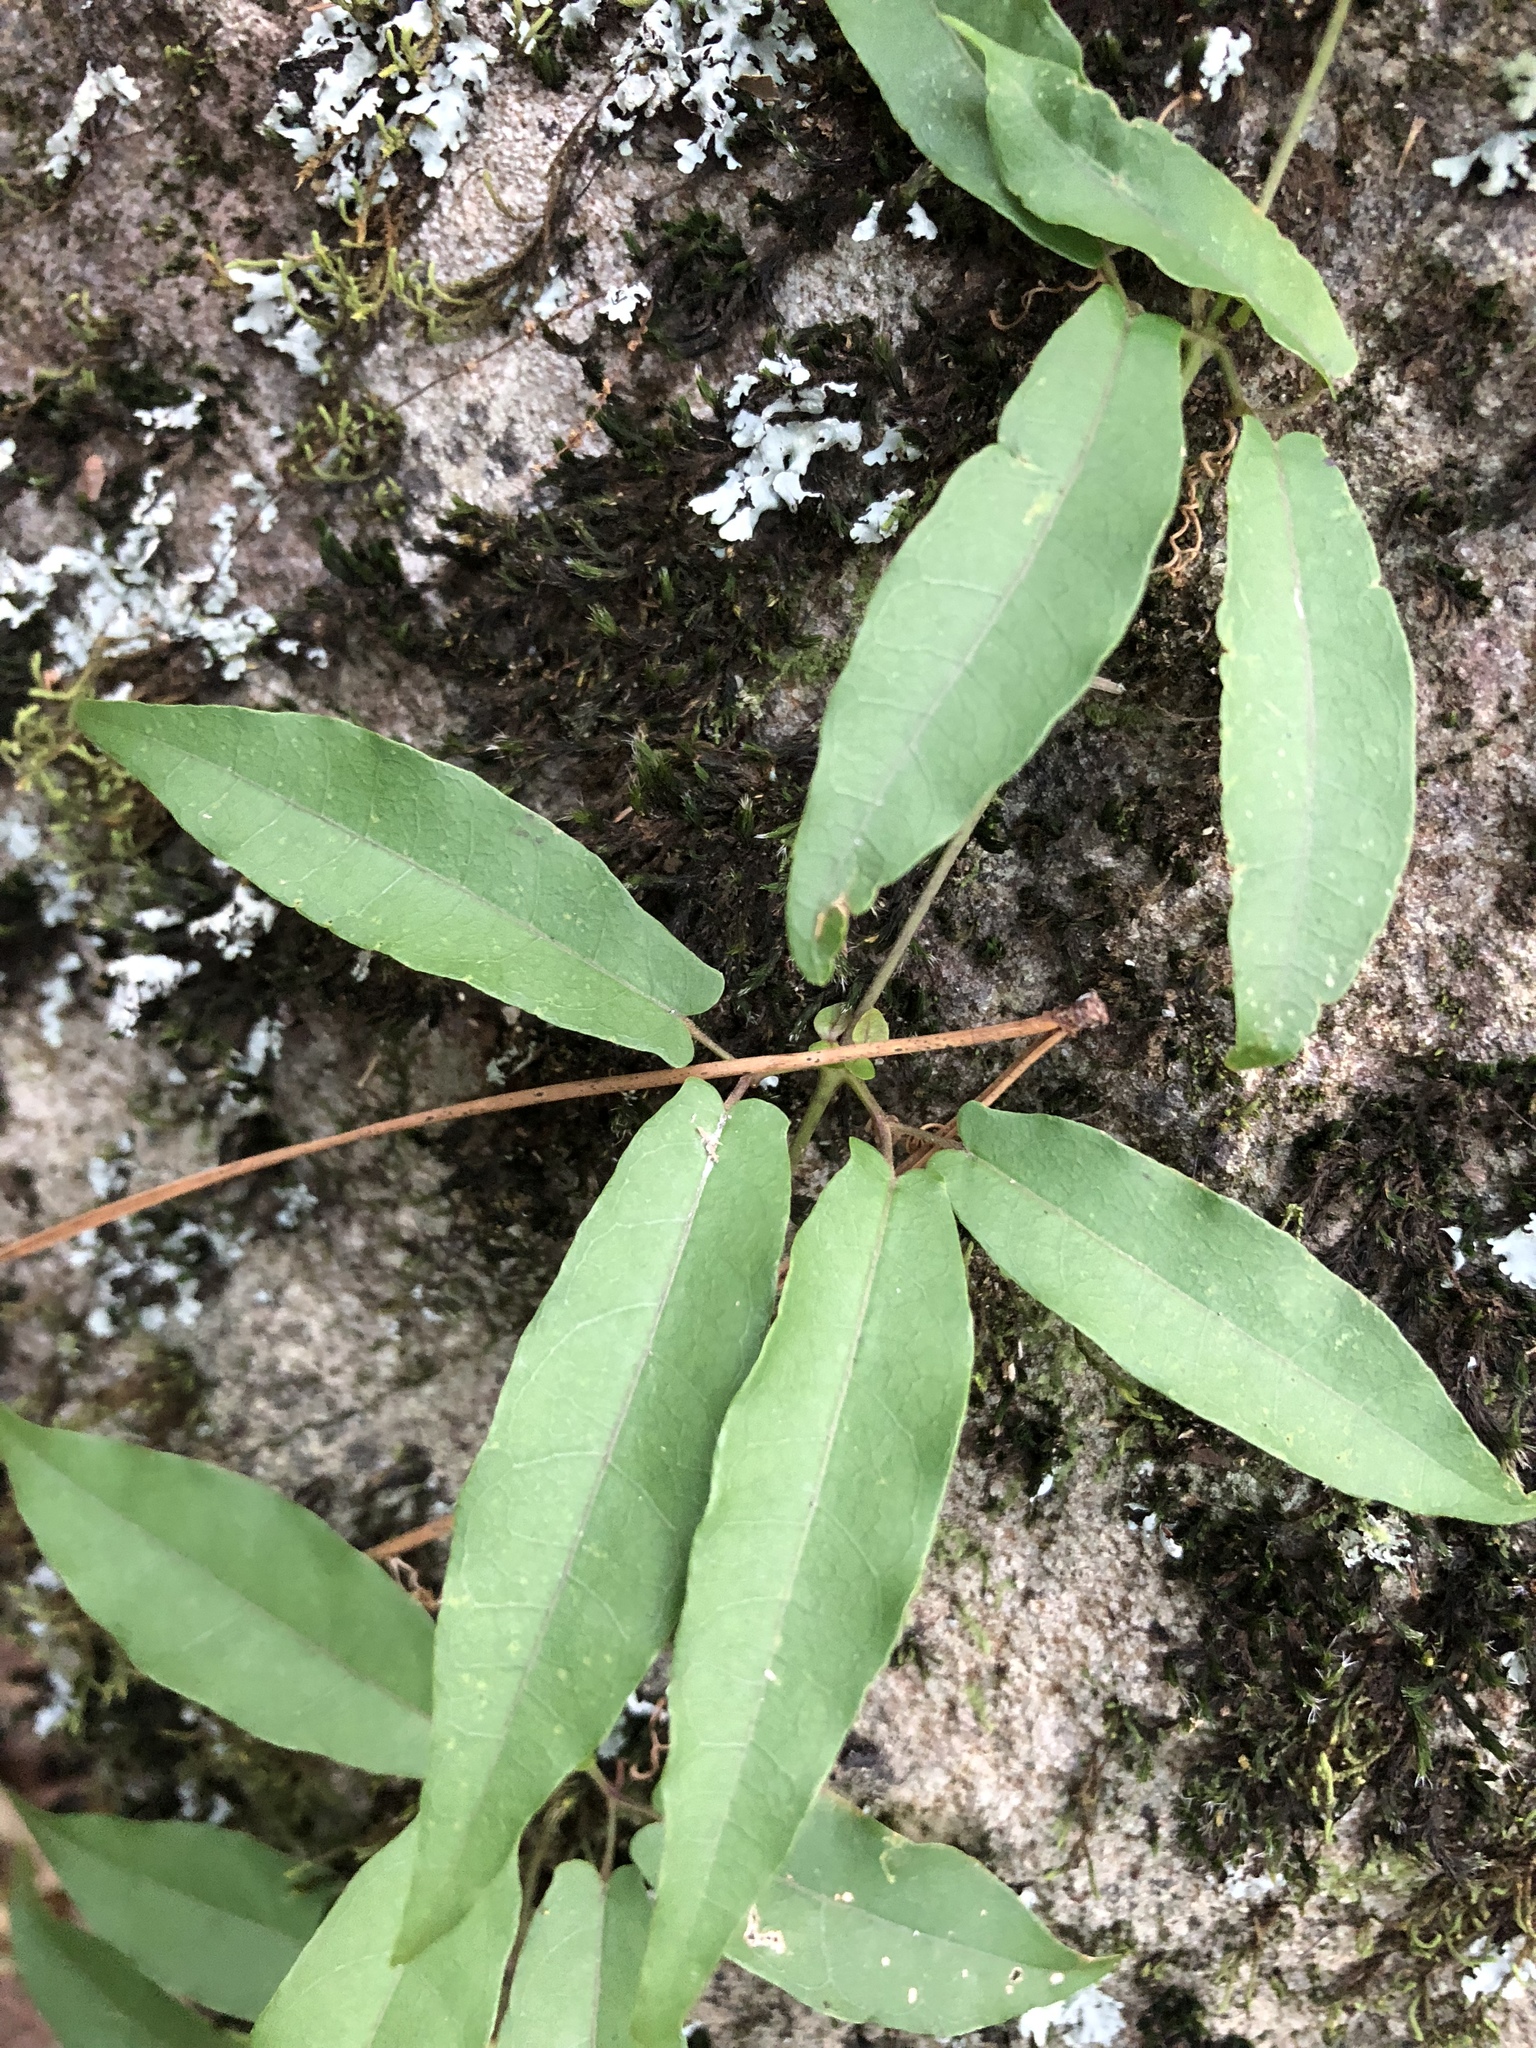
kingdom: Plantae
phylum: Tracheophyta
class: Magnoliopsida
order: Lamiales
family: Bignoniaceae
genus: Bignonia
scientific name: Bignonia capreolata
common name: Crossvine
